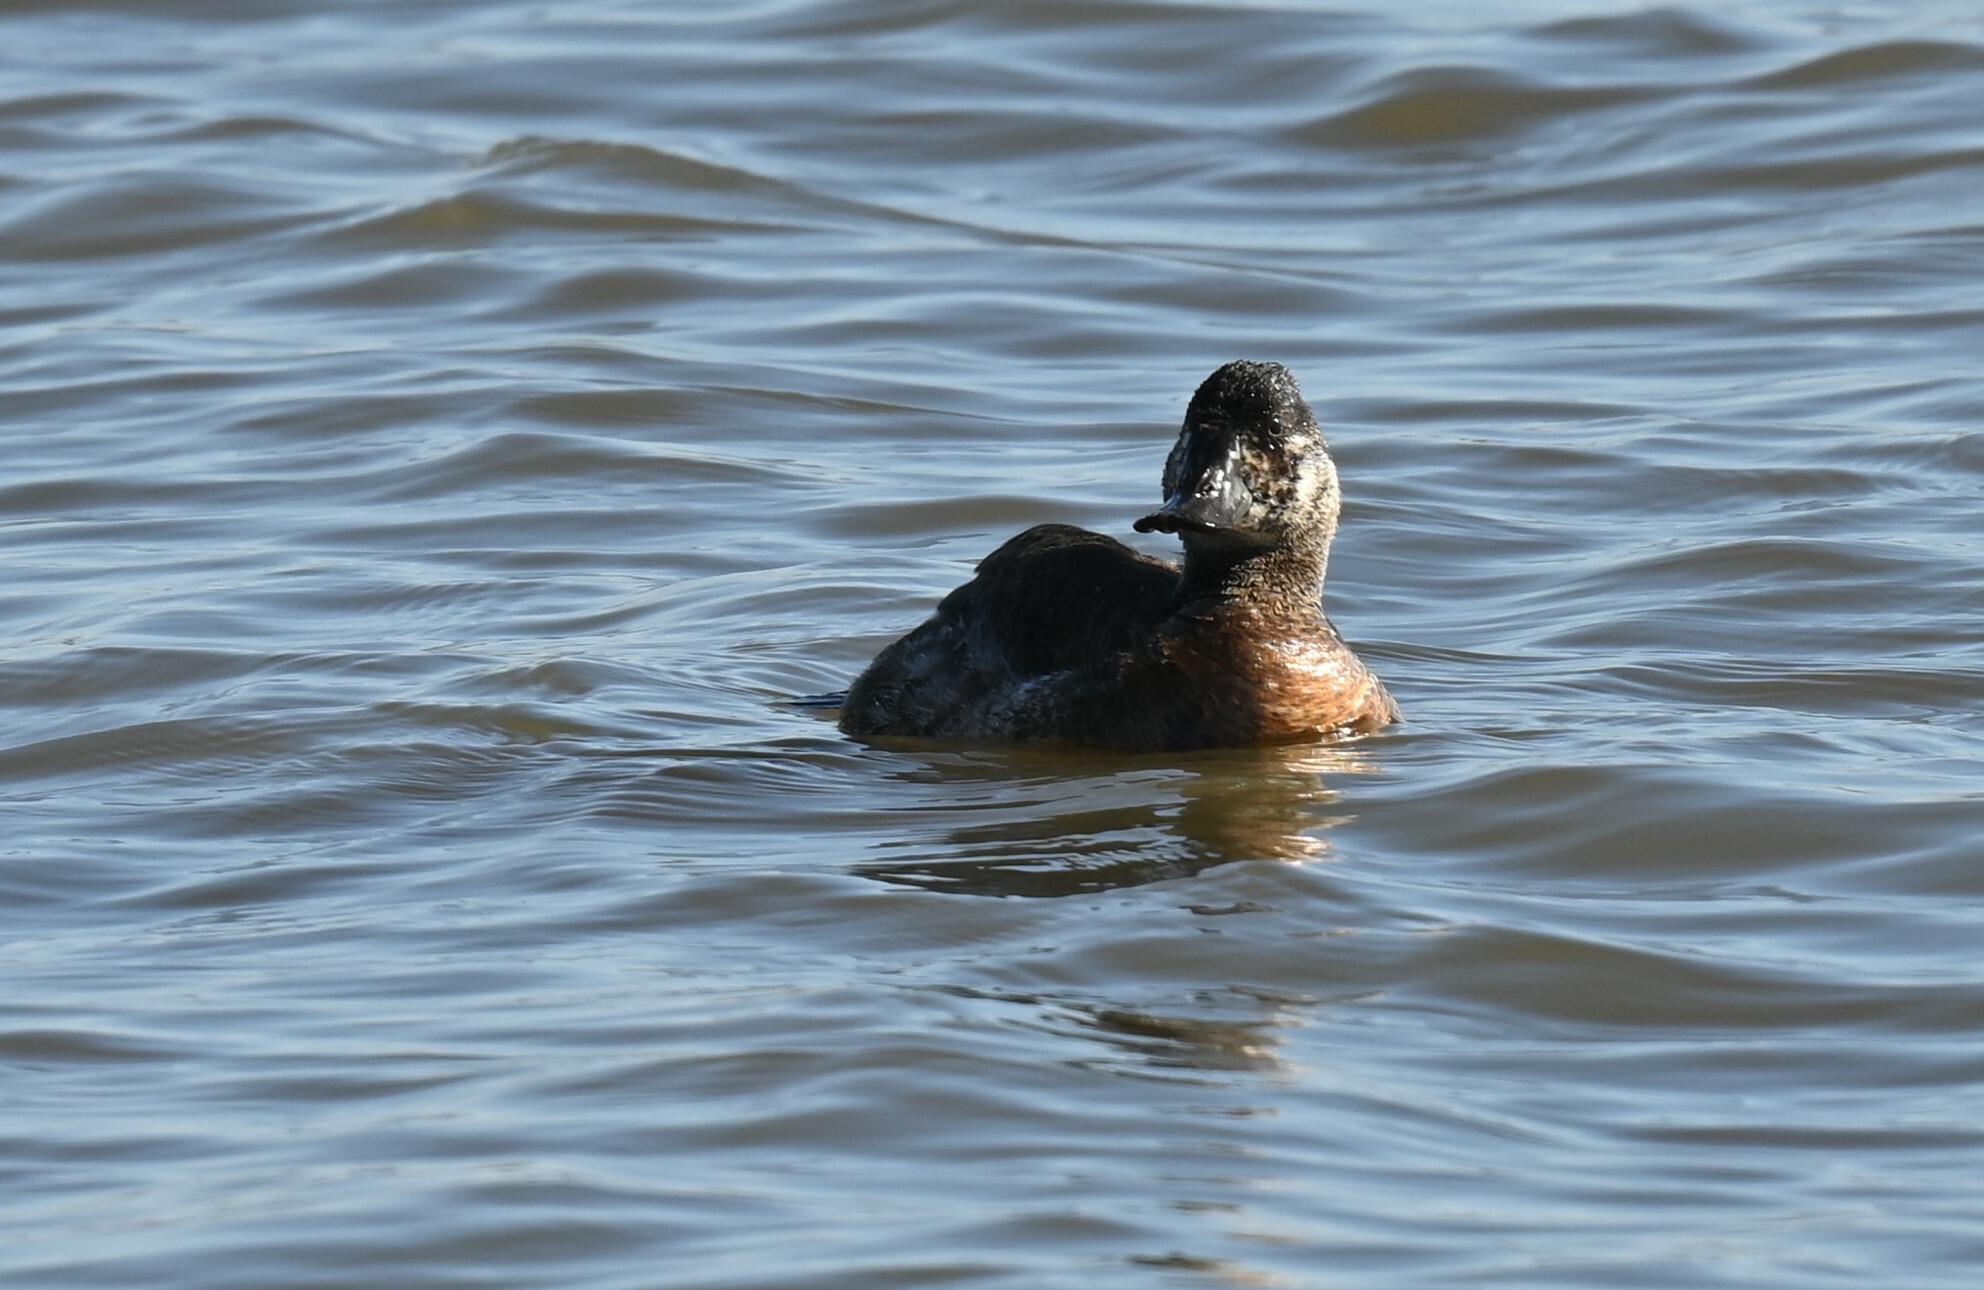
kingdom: Animalia
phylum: Chordata
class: Aves
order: Anseriformes
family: Anatidae
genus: Oxyura
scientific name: Oxyura jamaicensis
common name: Ruddy duck
